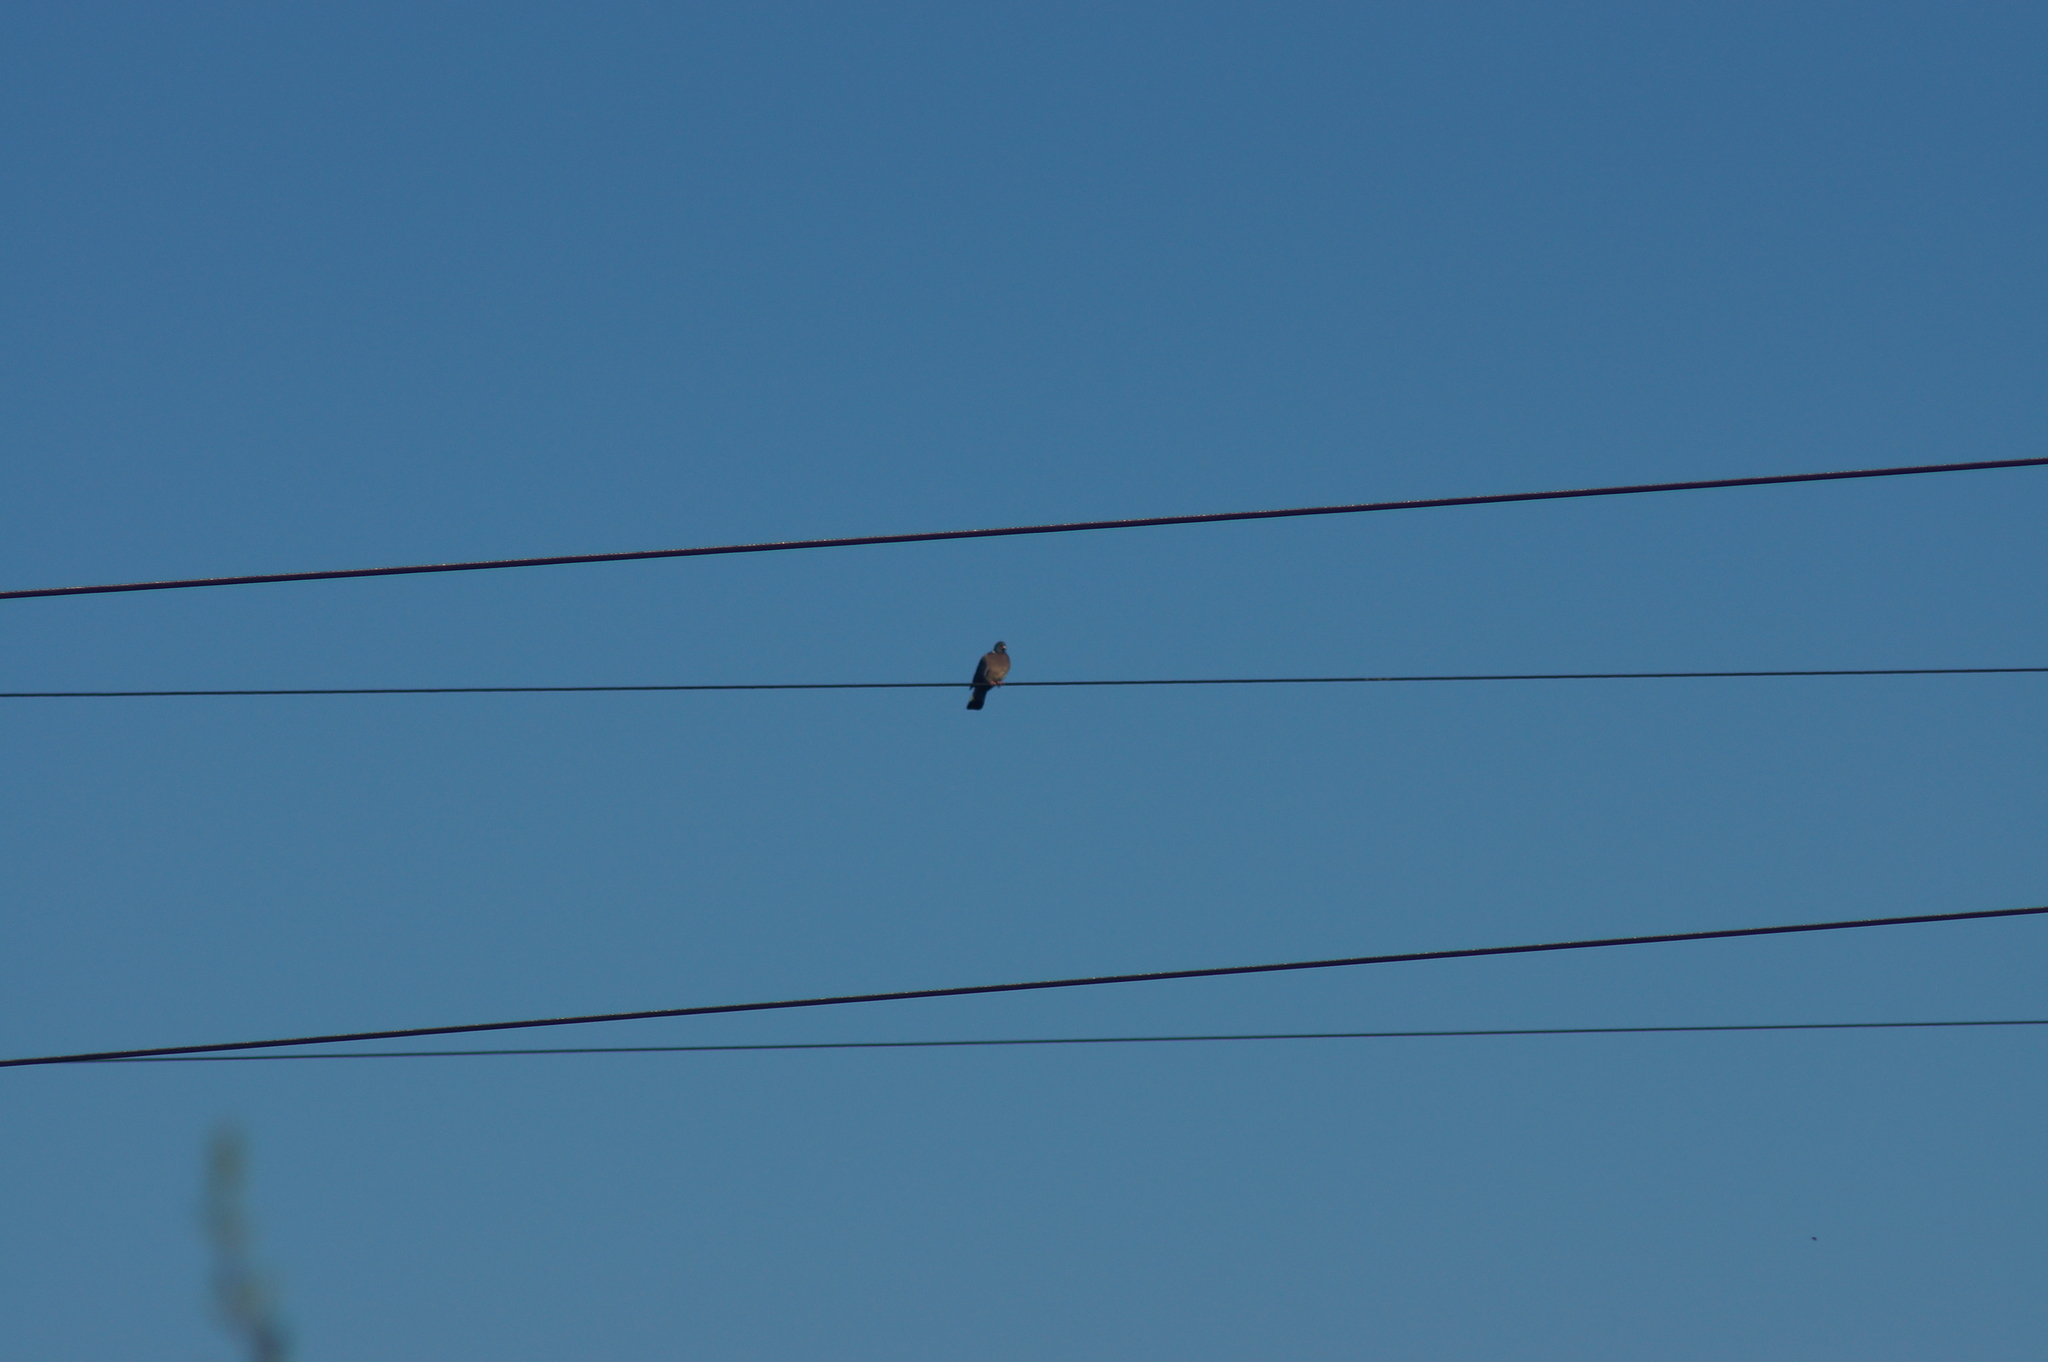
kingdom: Animalia
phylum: Chordata
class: Aves
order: Columbiformes
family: Columbidae
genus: Columba
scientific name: Columba palumbus
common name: Common wood pigeon
